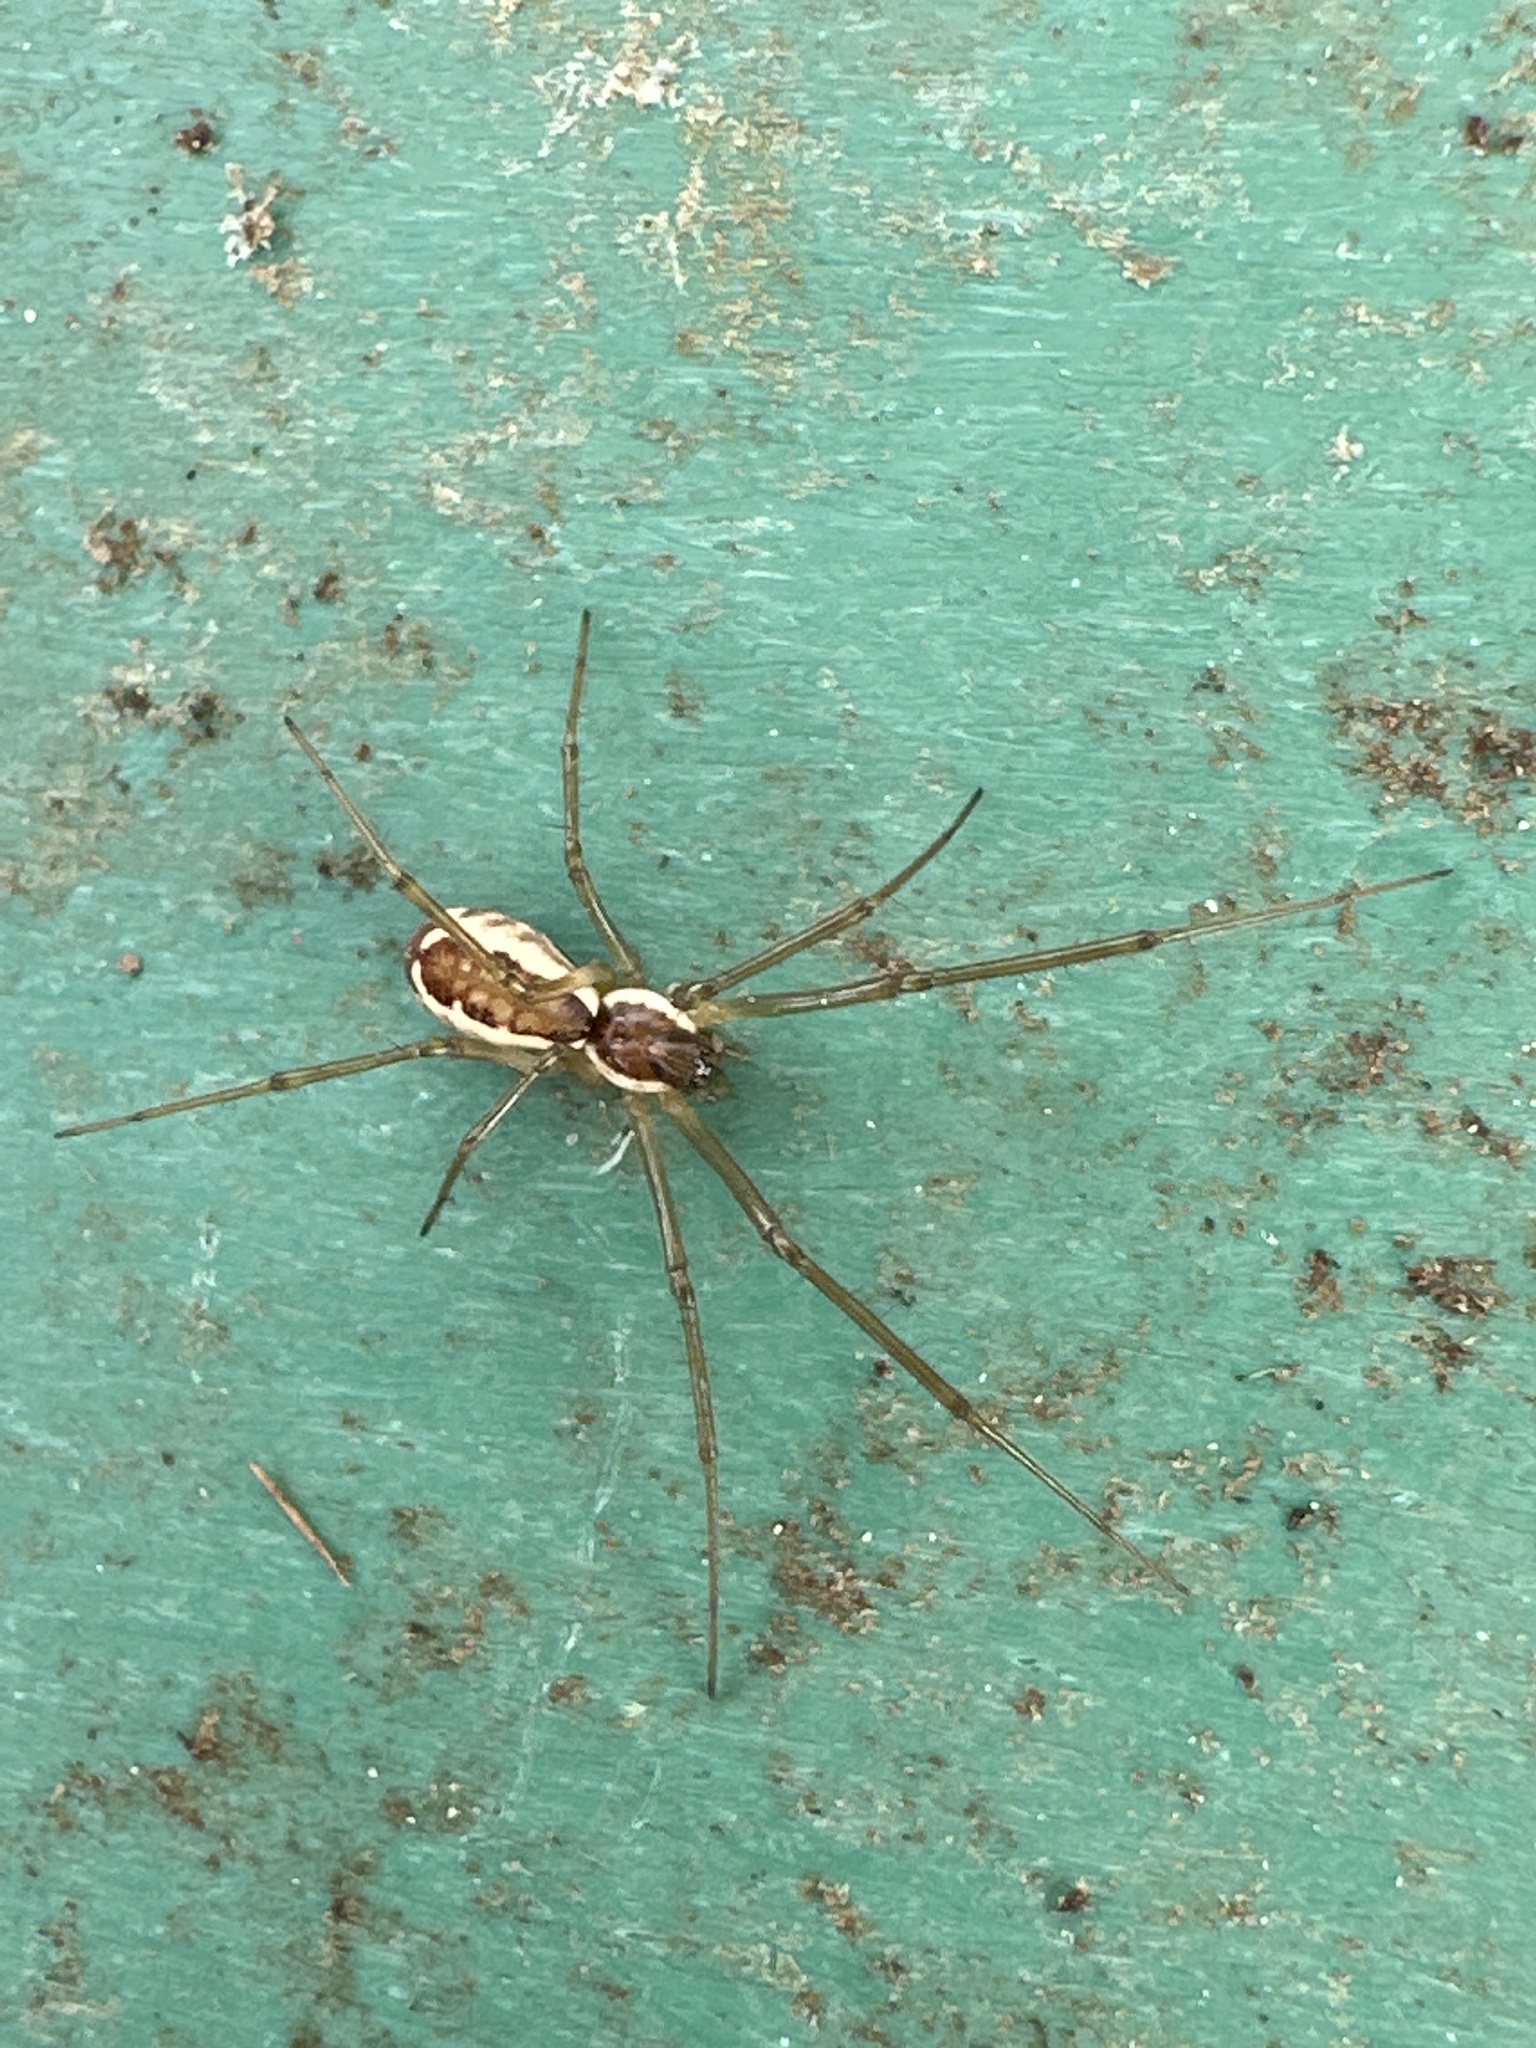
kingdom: Animalia
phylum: Arthropoda
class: Arachnida
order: Araneae
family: Linyphiidae
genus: Neriene
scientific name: Neriene radiata
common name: Filmy dome spider
